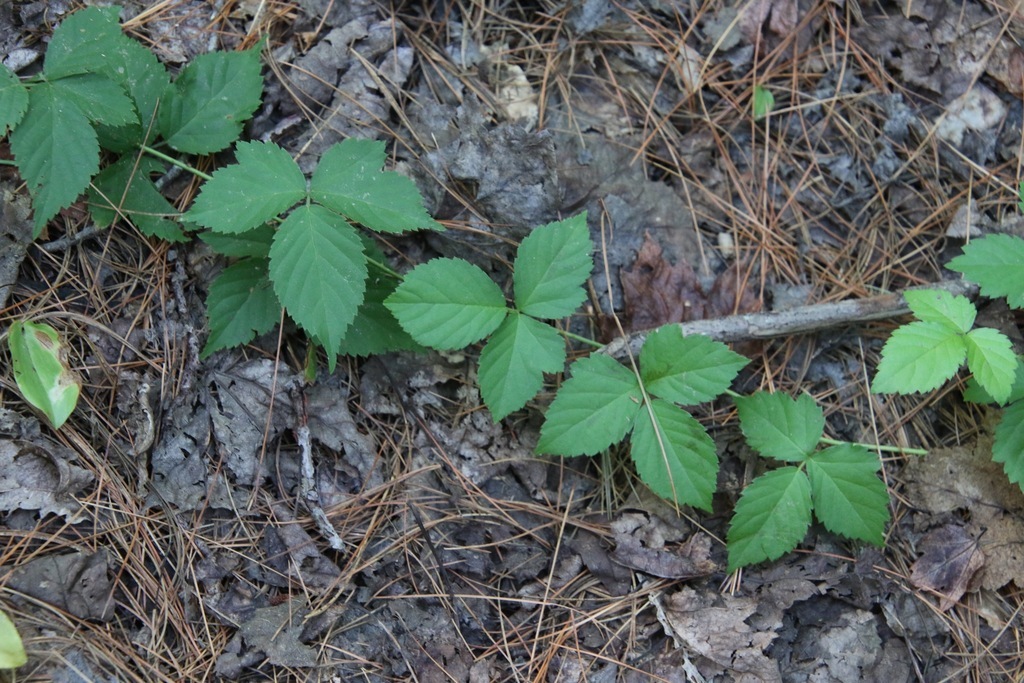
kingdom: Plantae
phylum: Tracheophyta
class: Magnoliopsida
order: Rosales
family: Rosaceae
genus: Rubus
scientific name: Rubus flagellaris
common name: American dewberry
